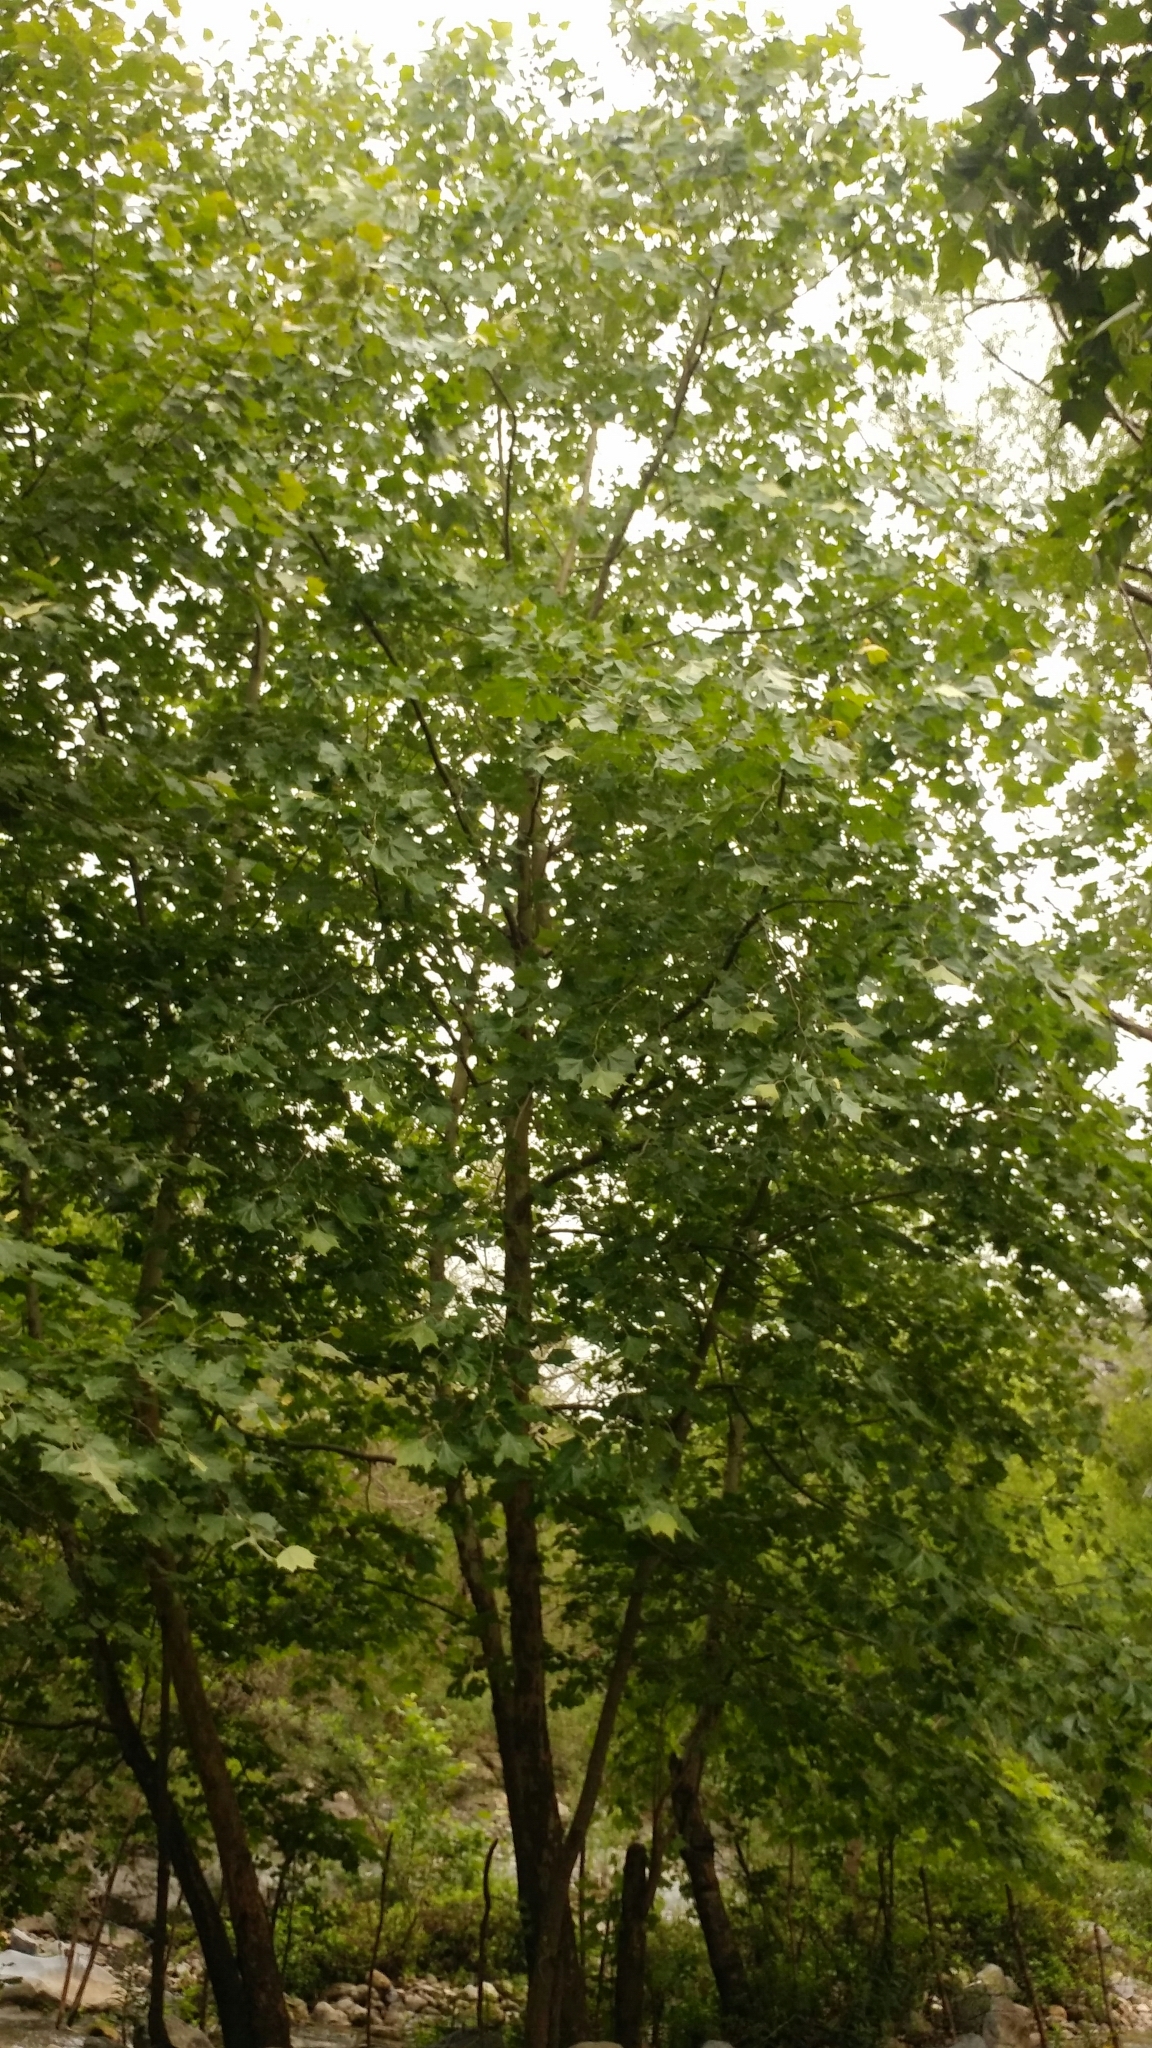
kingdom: Plantae
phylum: Tracheophyta
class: Magnoliopsida
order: Proteales
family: Platanaceae
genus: Platanus
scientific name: Platanus rzedowskii
